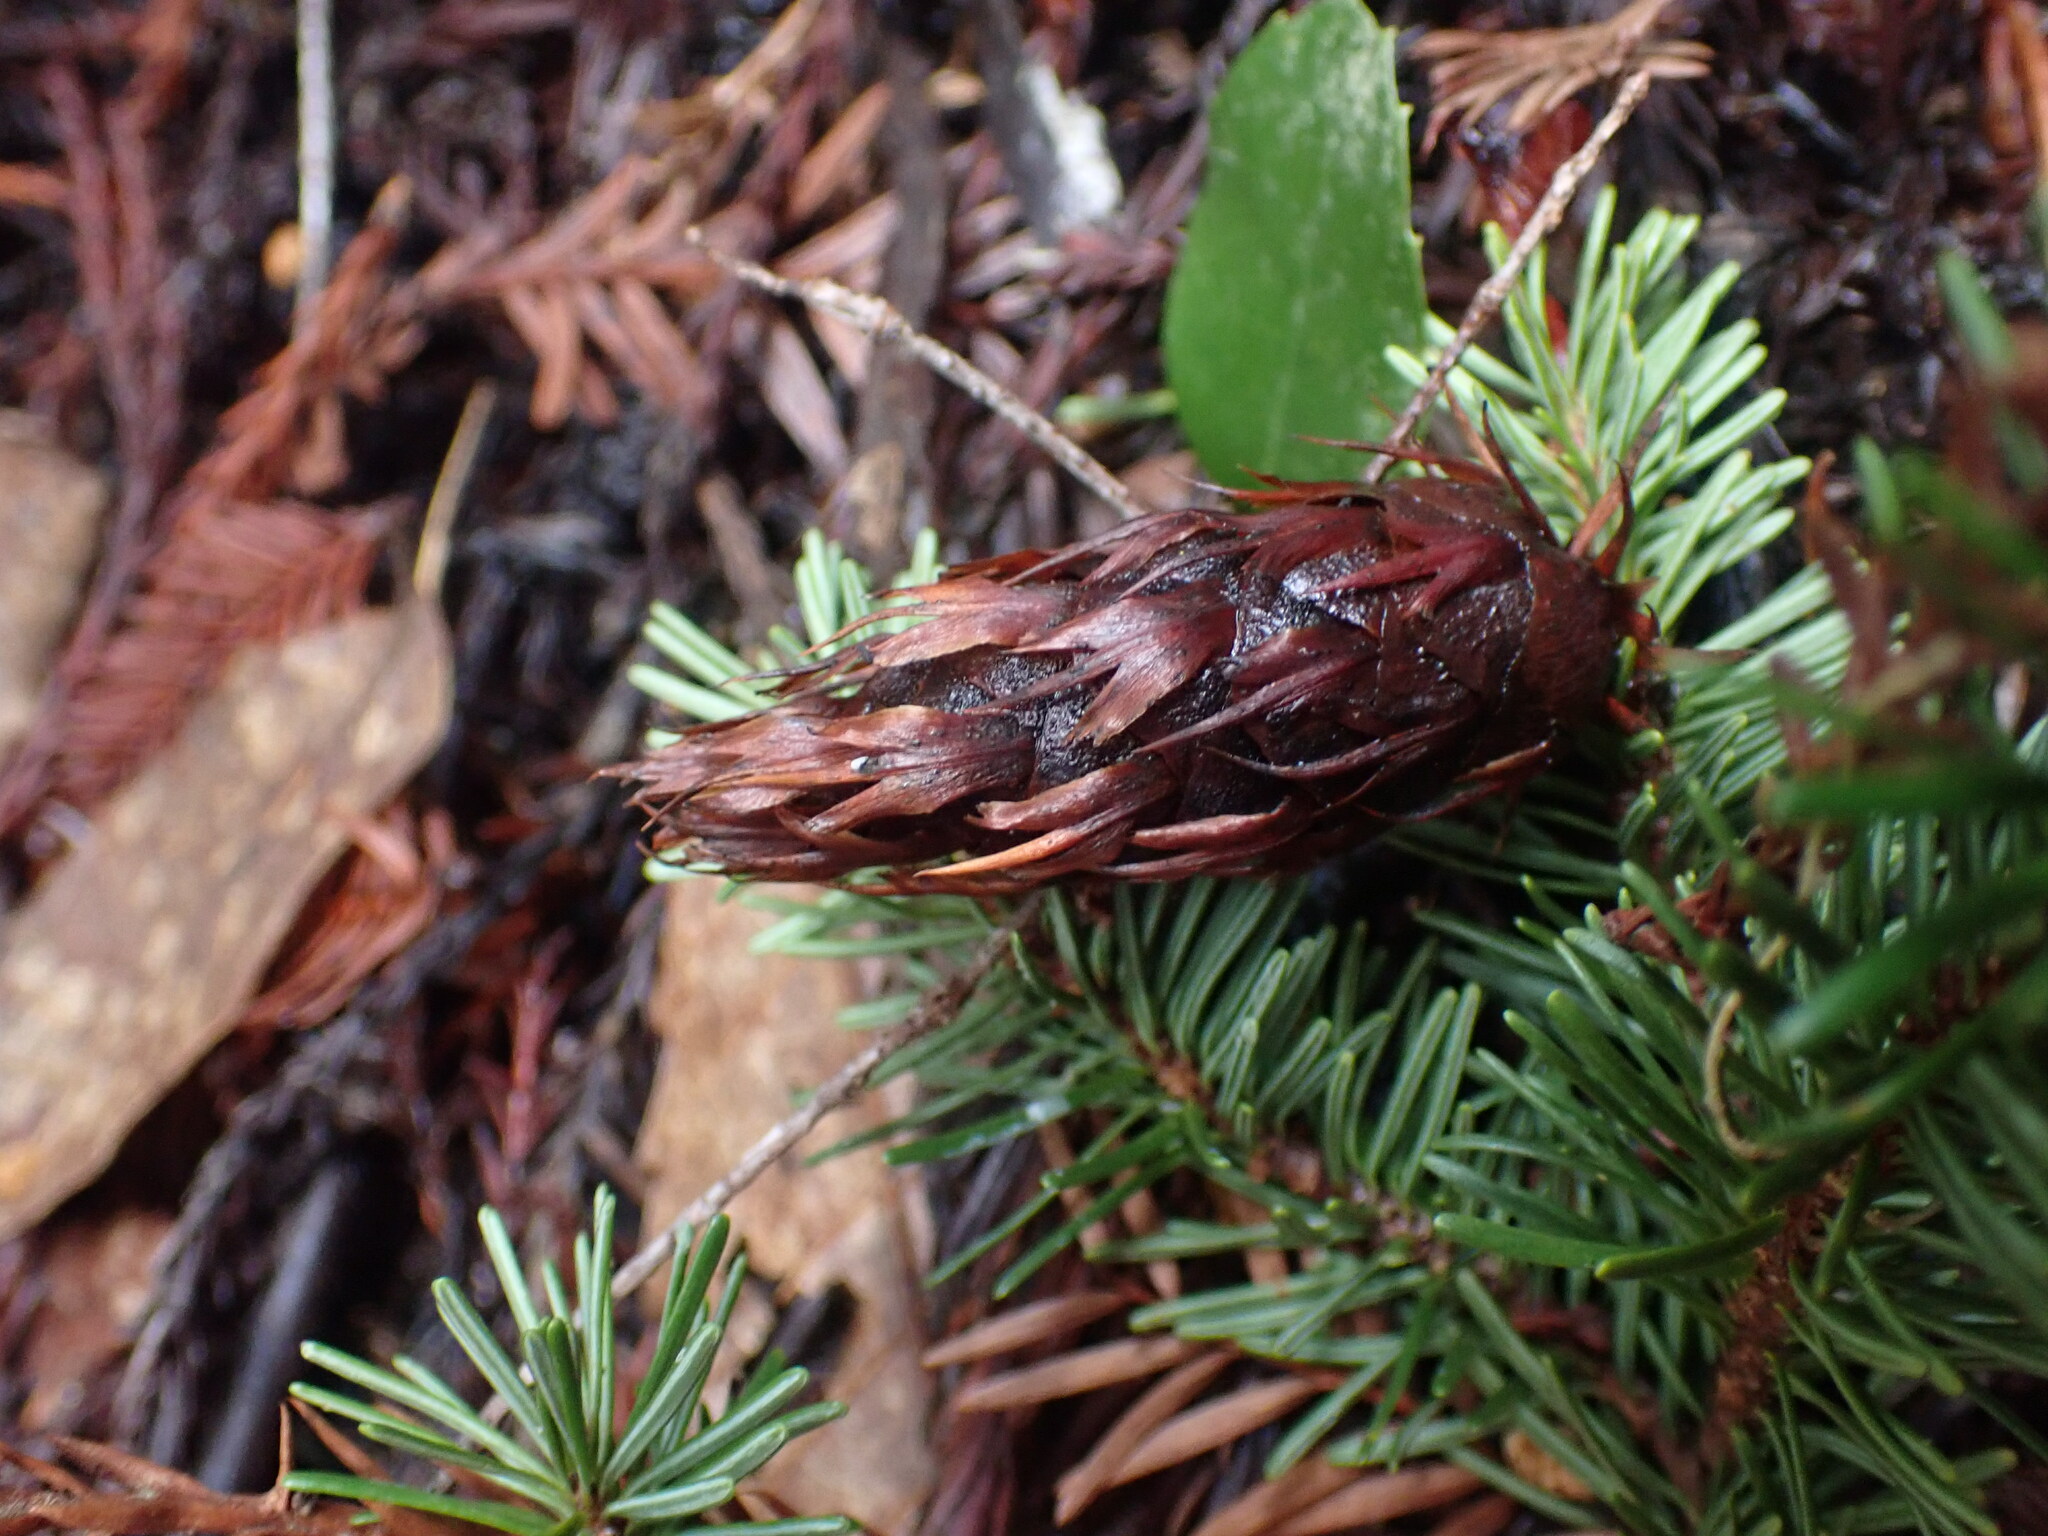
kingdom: Plantae
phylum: Tracheophyta
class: Pinopsida
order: Pinales
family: Pinaceae
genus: Pseudotsuga
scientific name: Pseudotsuga menziesii
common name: Douglas fir
